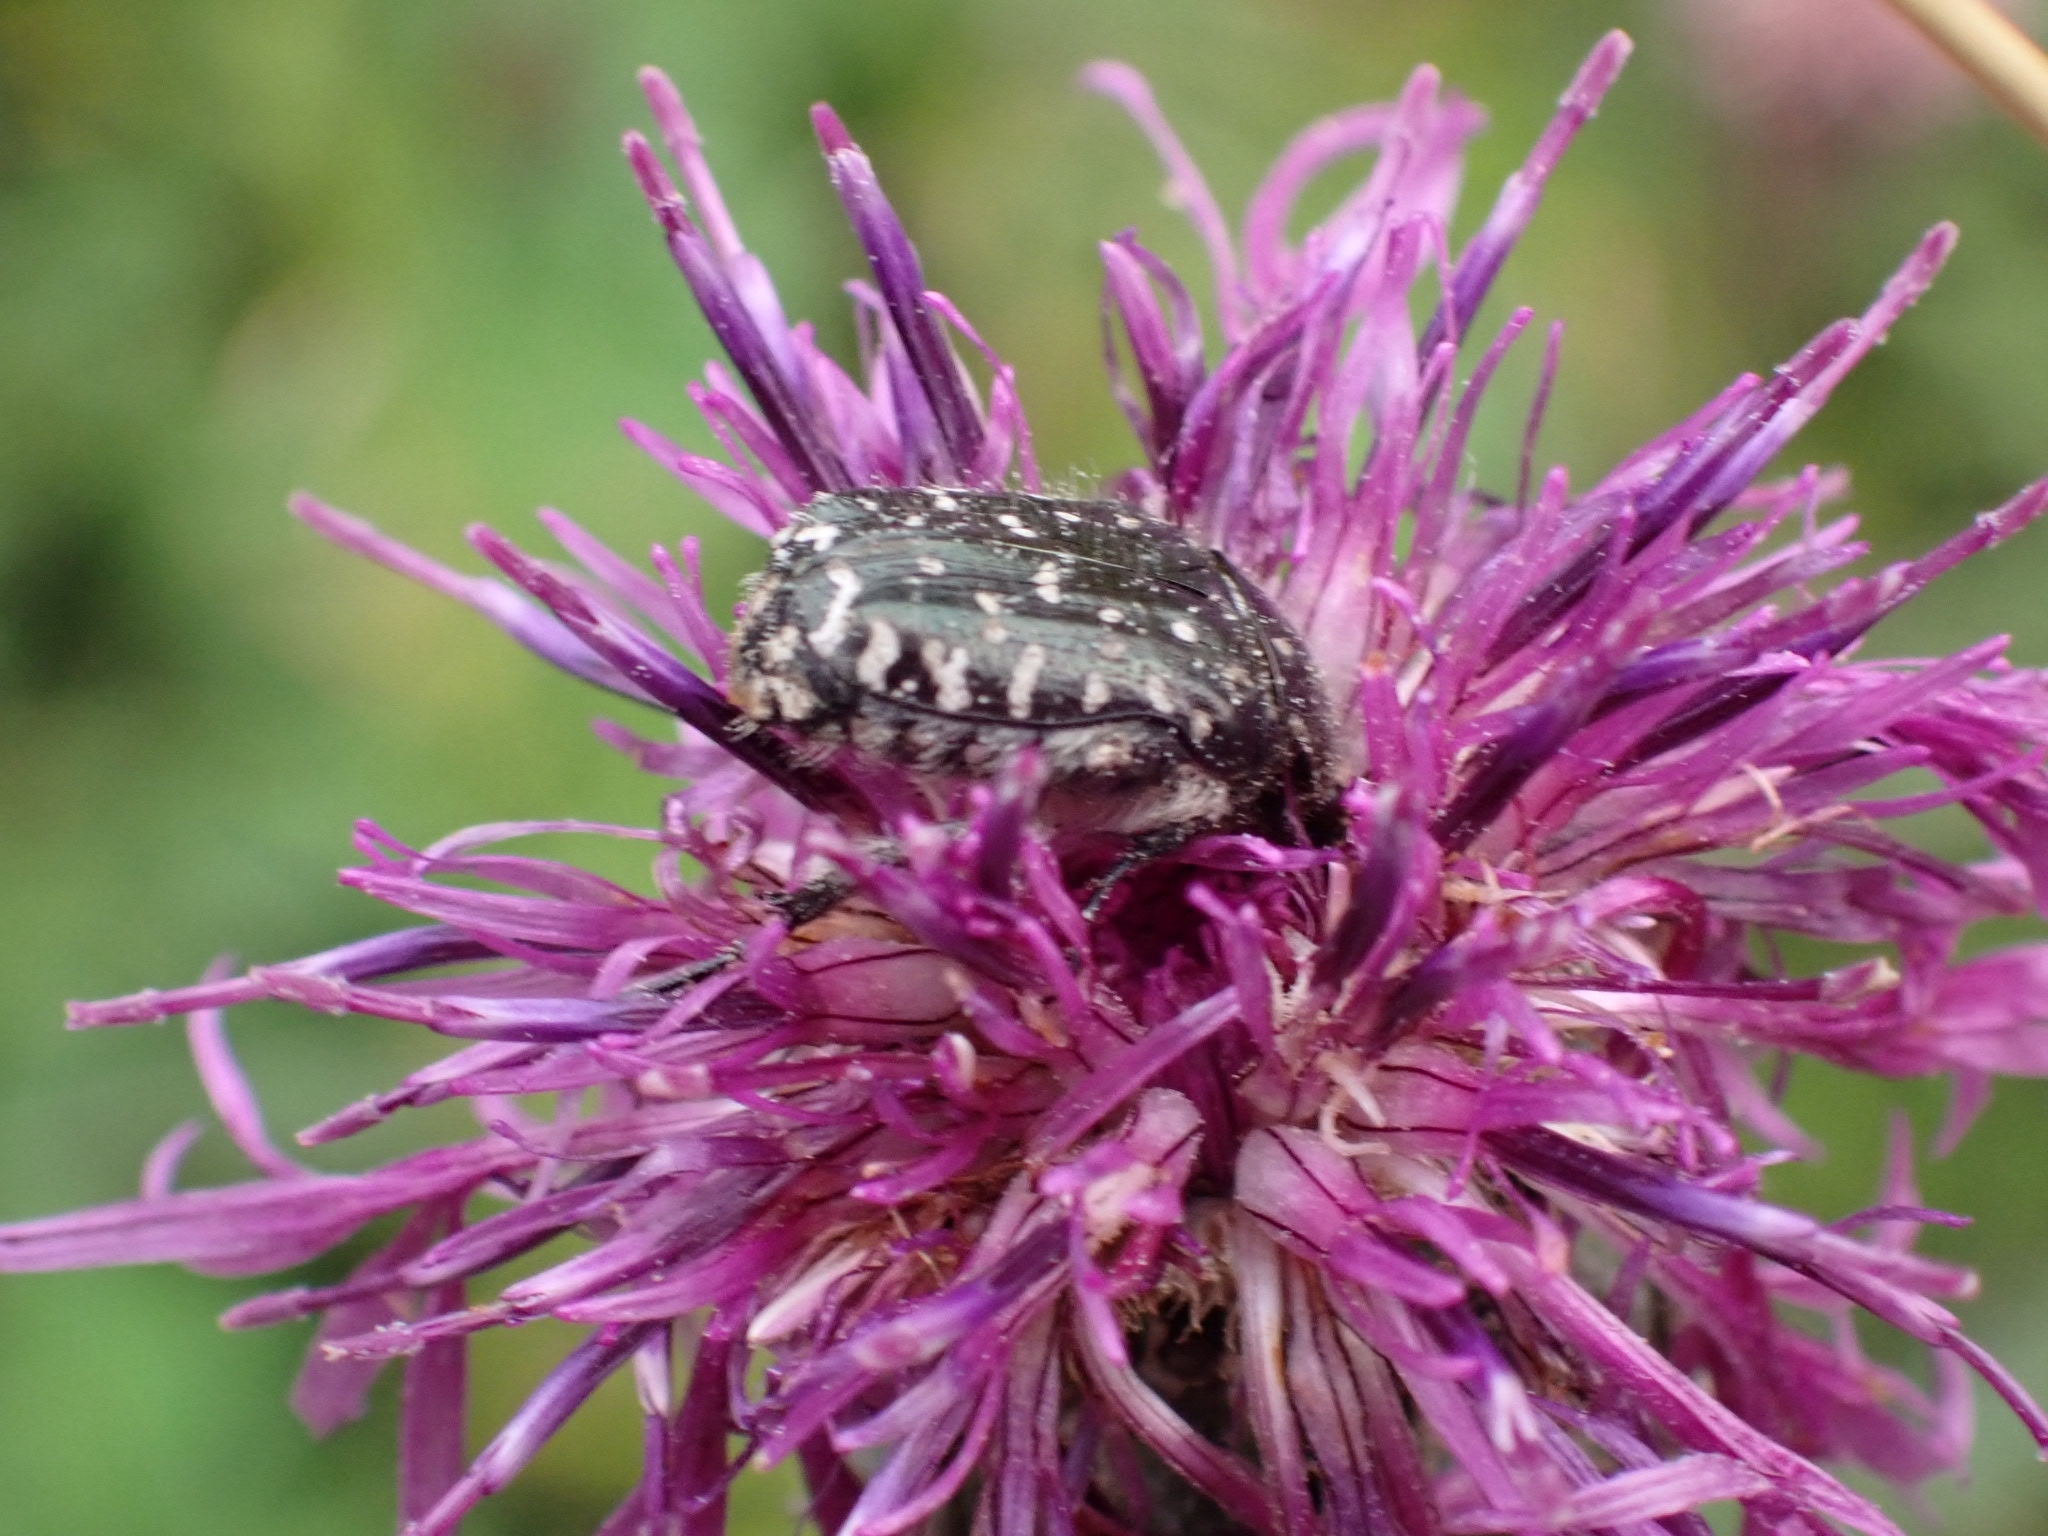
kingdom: Animalia
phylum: Arthropoda
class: Insecta
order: Coleoptera
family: Scarabaeidae
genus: Oxythyrea
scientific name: Oxythyrea funesta
